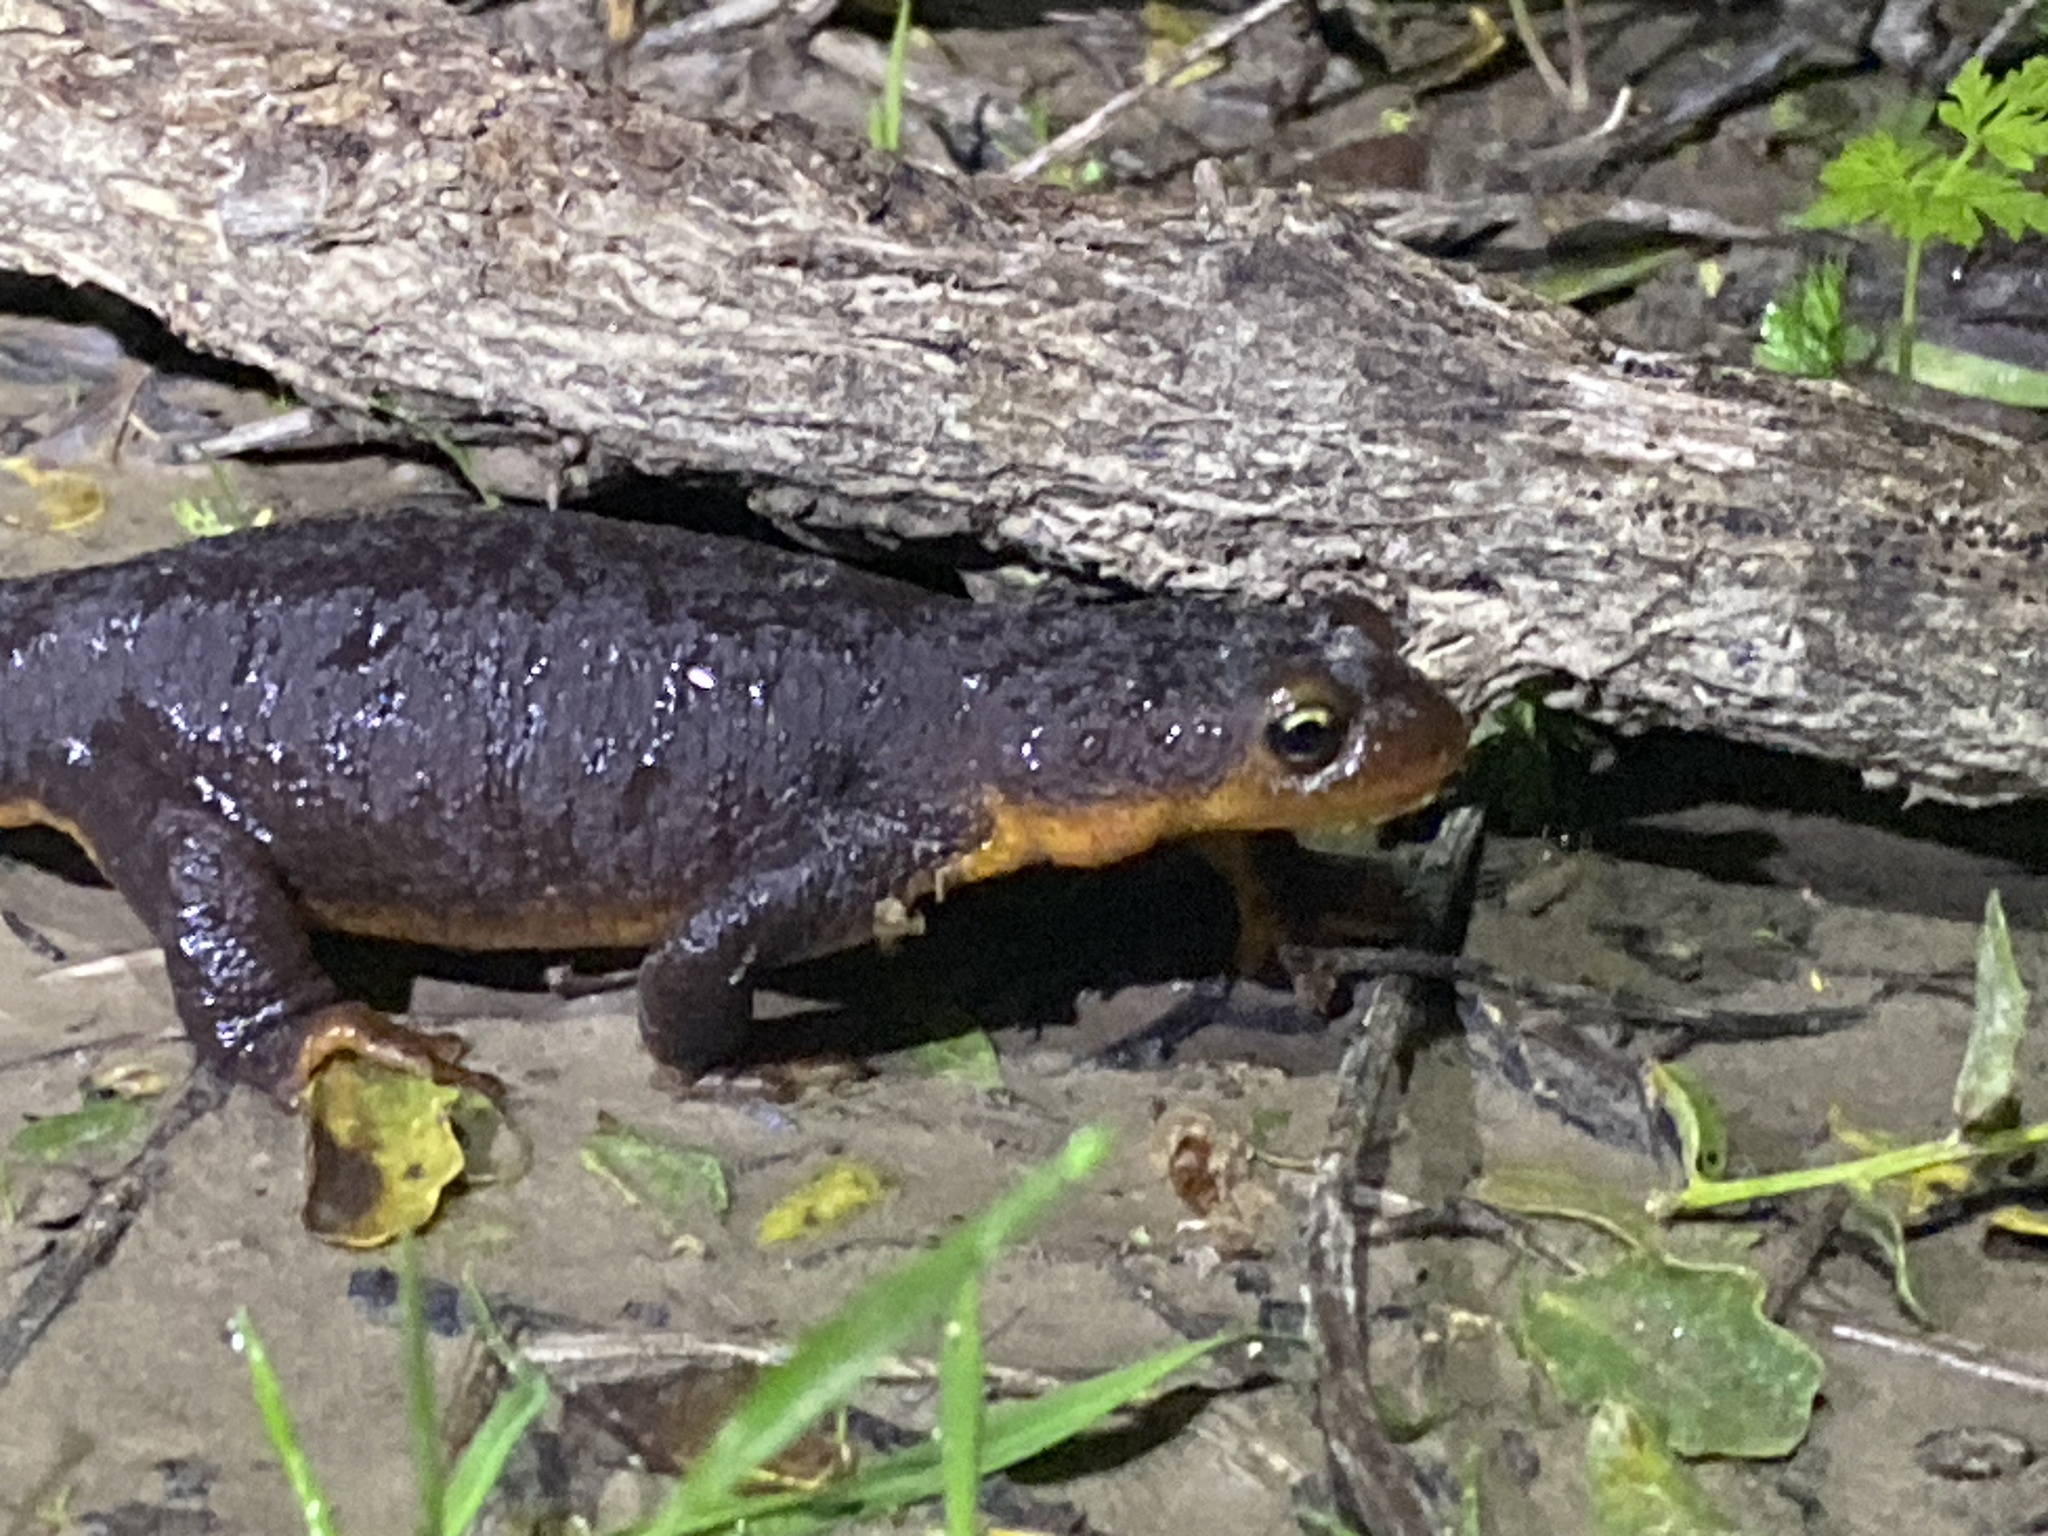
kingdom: Animalia
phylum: Chordata
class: Amphibia
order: Caudata
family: Salamandridae
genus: Taricha
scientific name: Taricha torosa
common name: California newt
